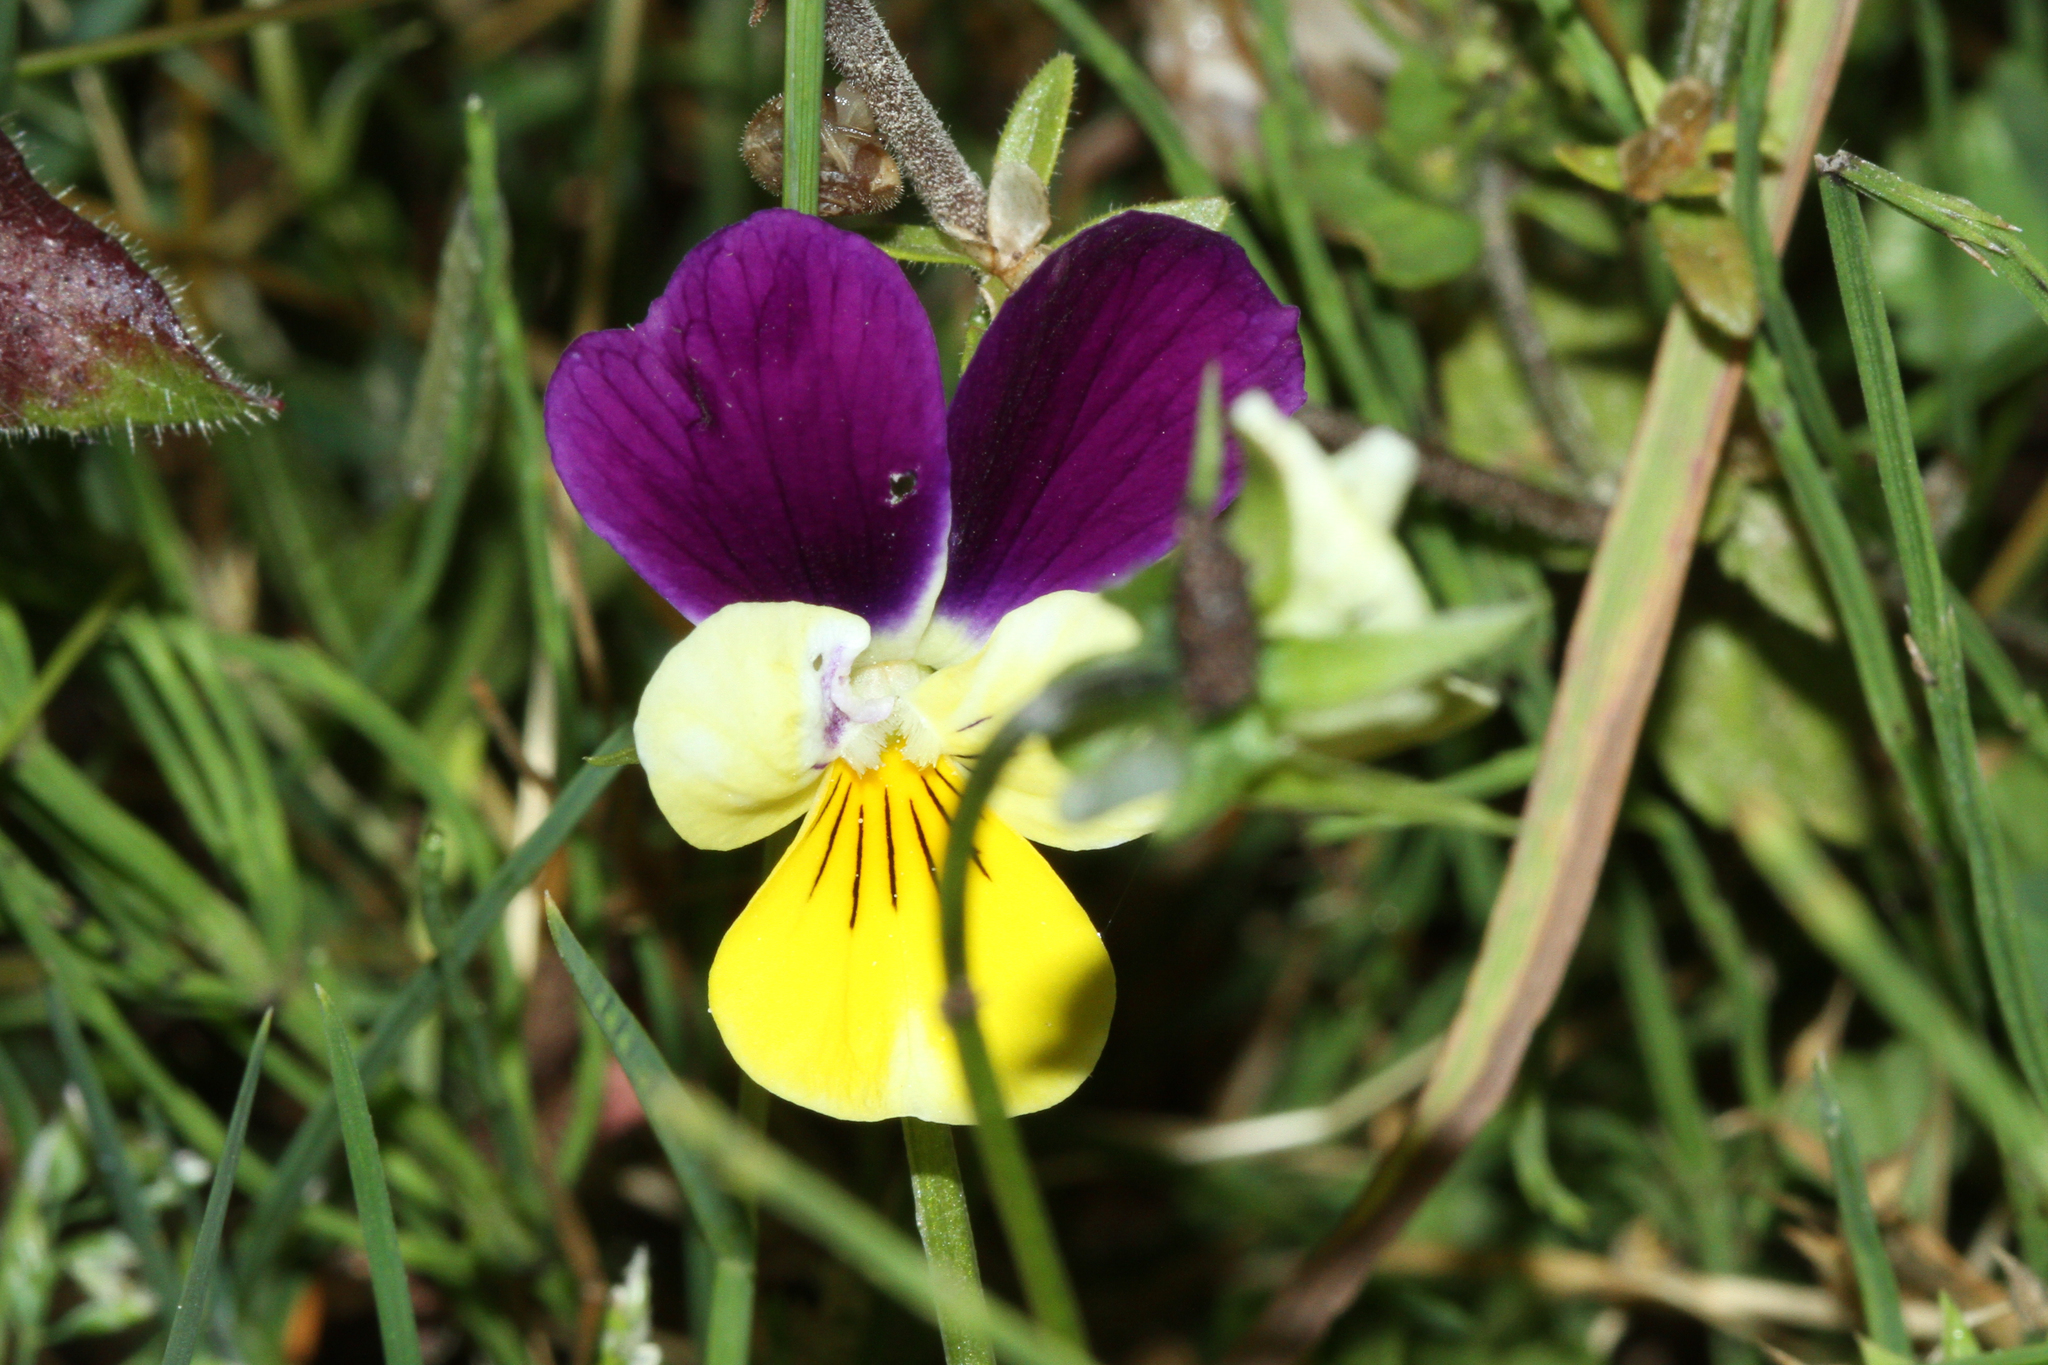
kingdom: Plantae
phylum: Tracheophyta
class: Magnoliopsida
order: Malpighiales
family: Violaceae
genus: Viola
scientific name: Viola tricolor
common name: Pansy
